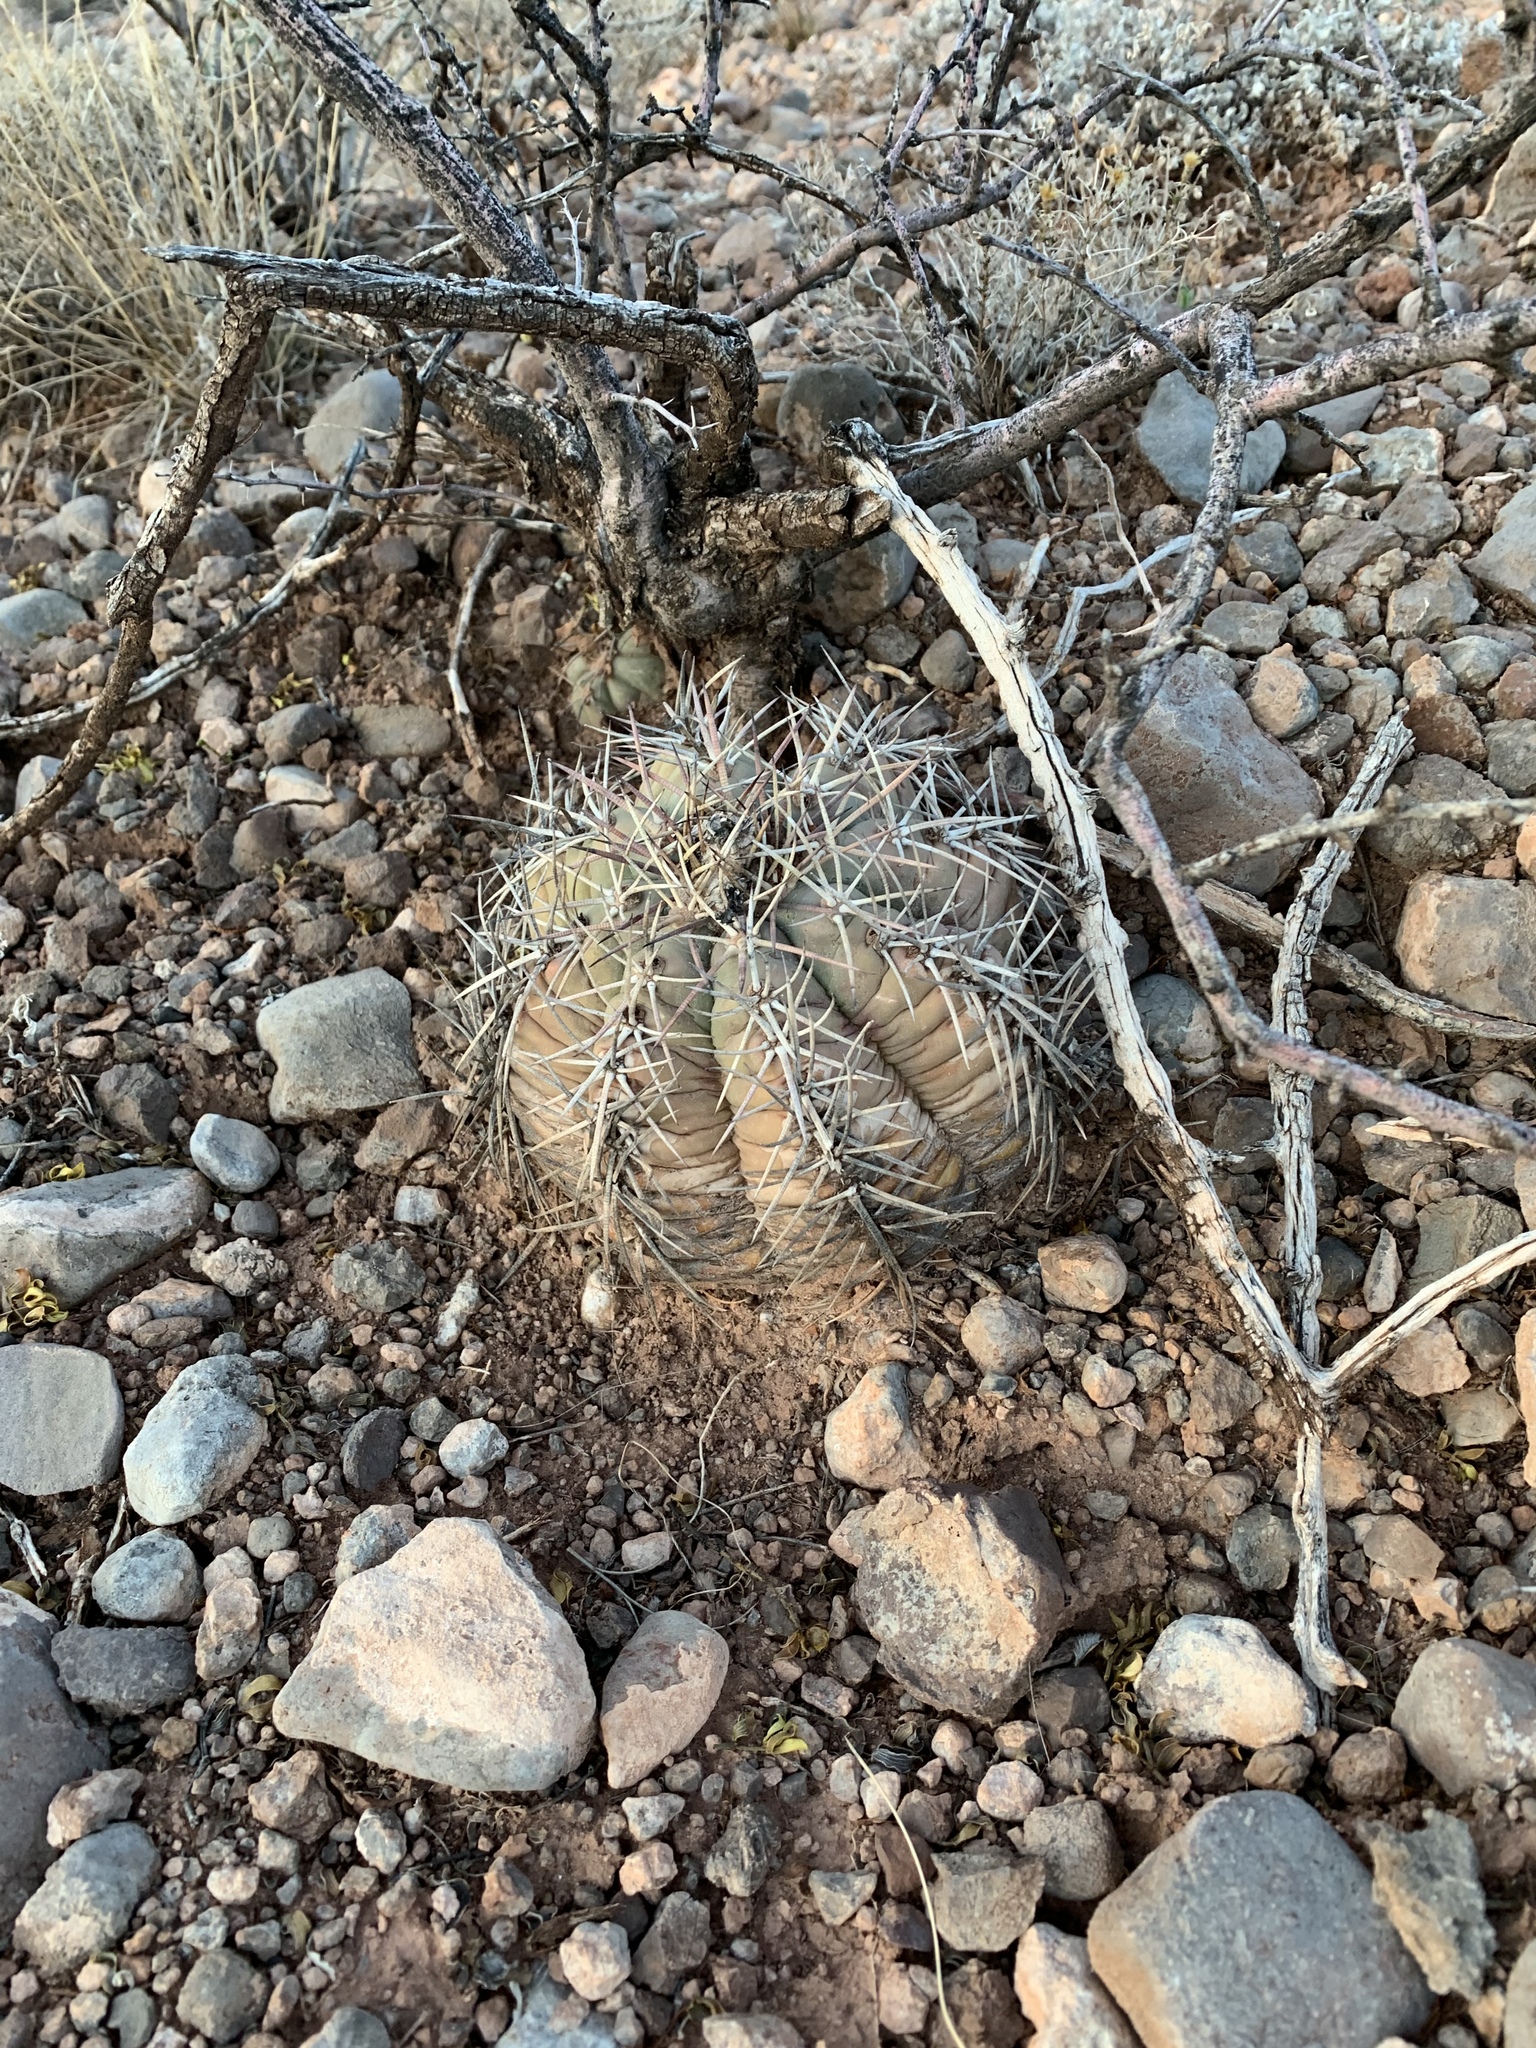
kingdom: Plantae
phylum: Tracheophyta
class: Magnoliopsida
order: Caryophyllales
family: Cactaceae
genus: Echinocactus
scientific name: Echinocactus horizonthalonius
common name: Devilshead
